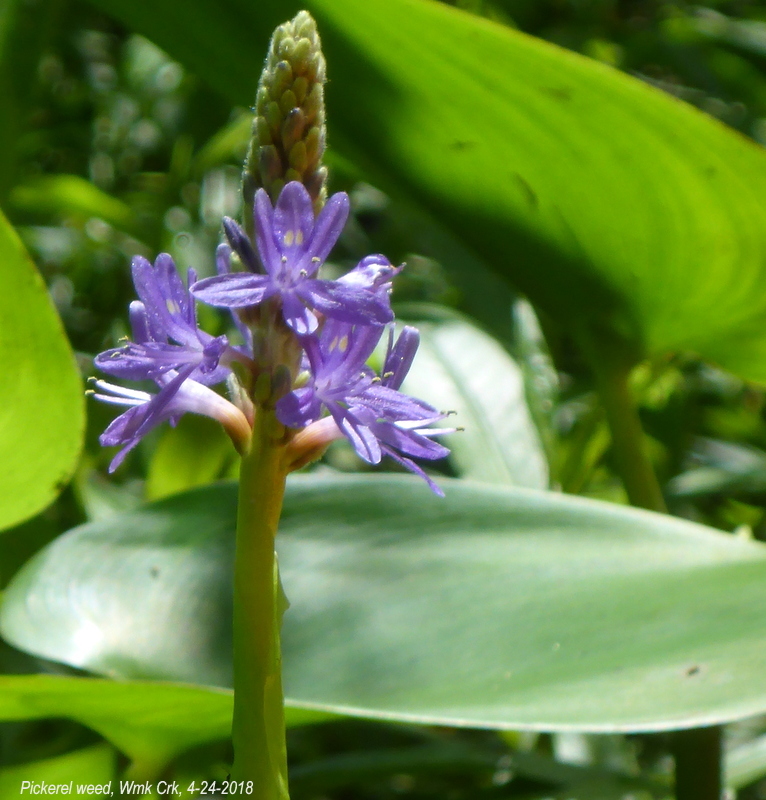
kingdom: Plantae
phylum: Tracheophyta
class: Liliopsida
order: Commelinales
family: Pontederiaceae
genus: Pontederia
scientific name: Pontederia cordata
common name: Pickerelweed
